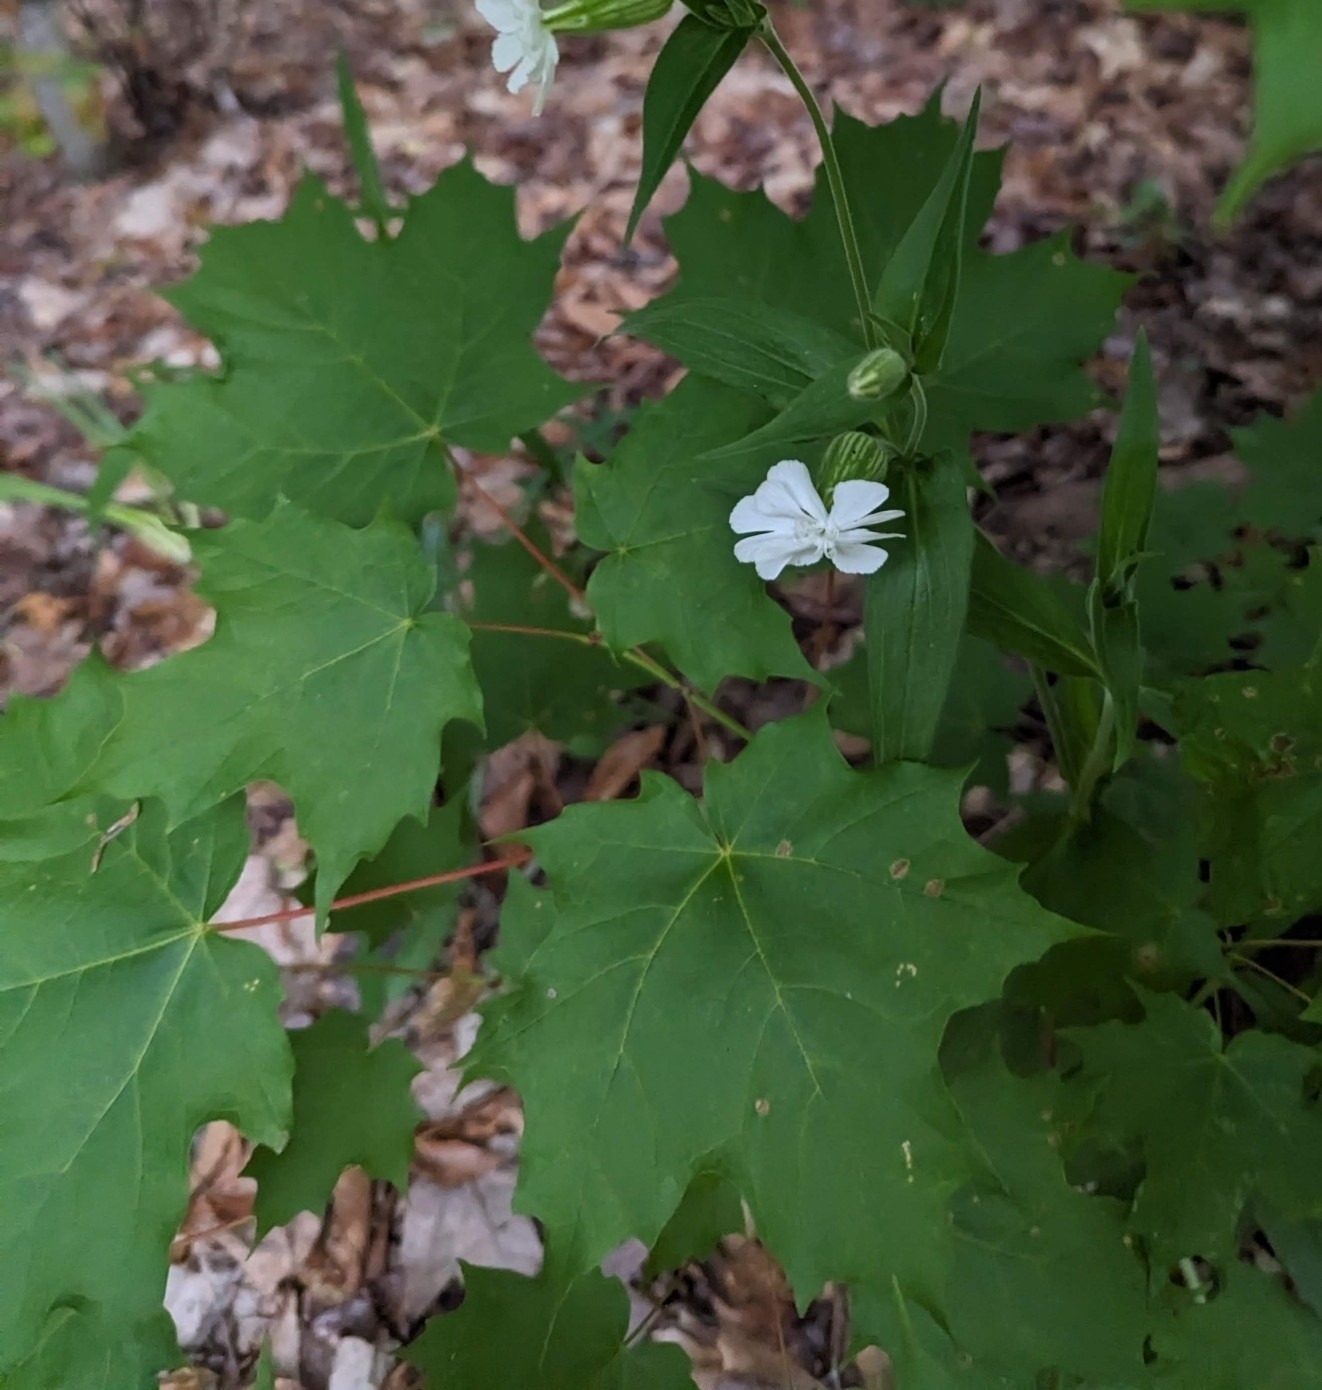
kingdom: Plantae
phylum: Tracheophyta
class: Magnoliopsida
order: Sapindales
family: Sapindaceae
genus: Acer
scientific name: Acer saccharum
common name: Sugar maple
